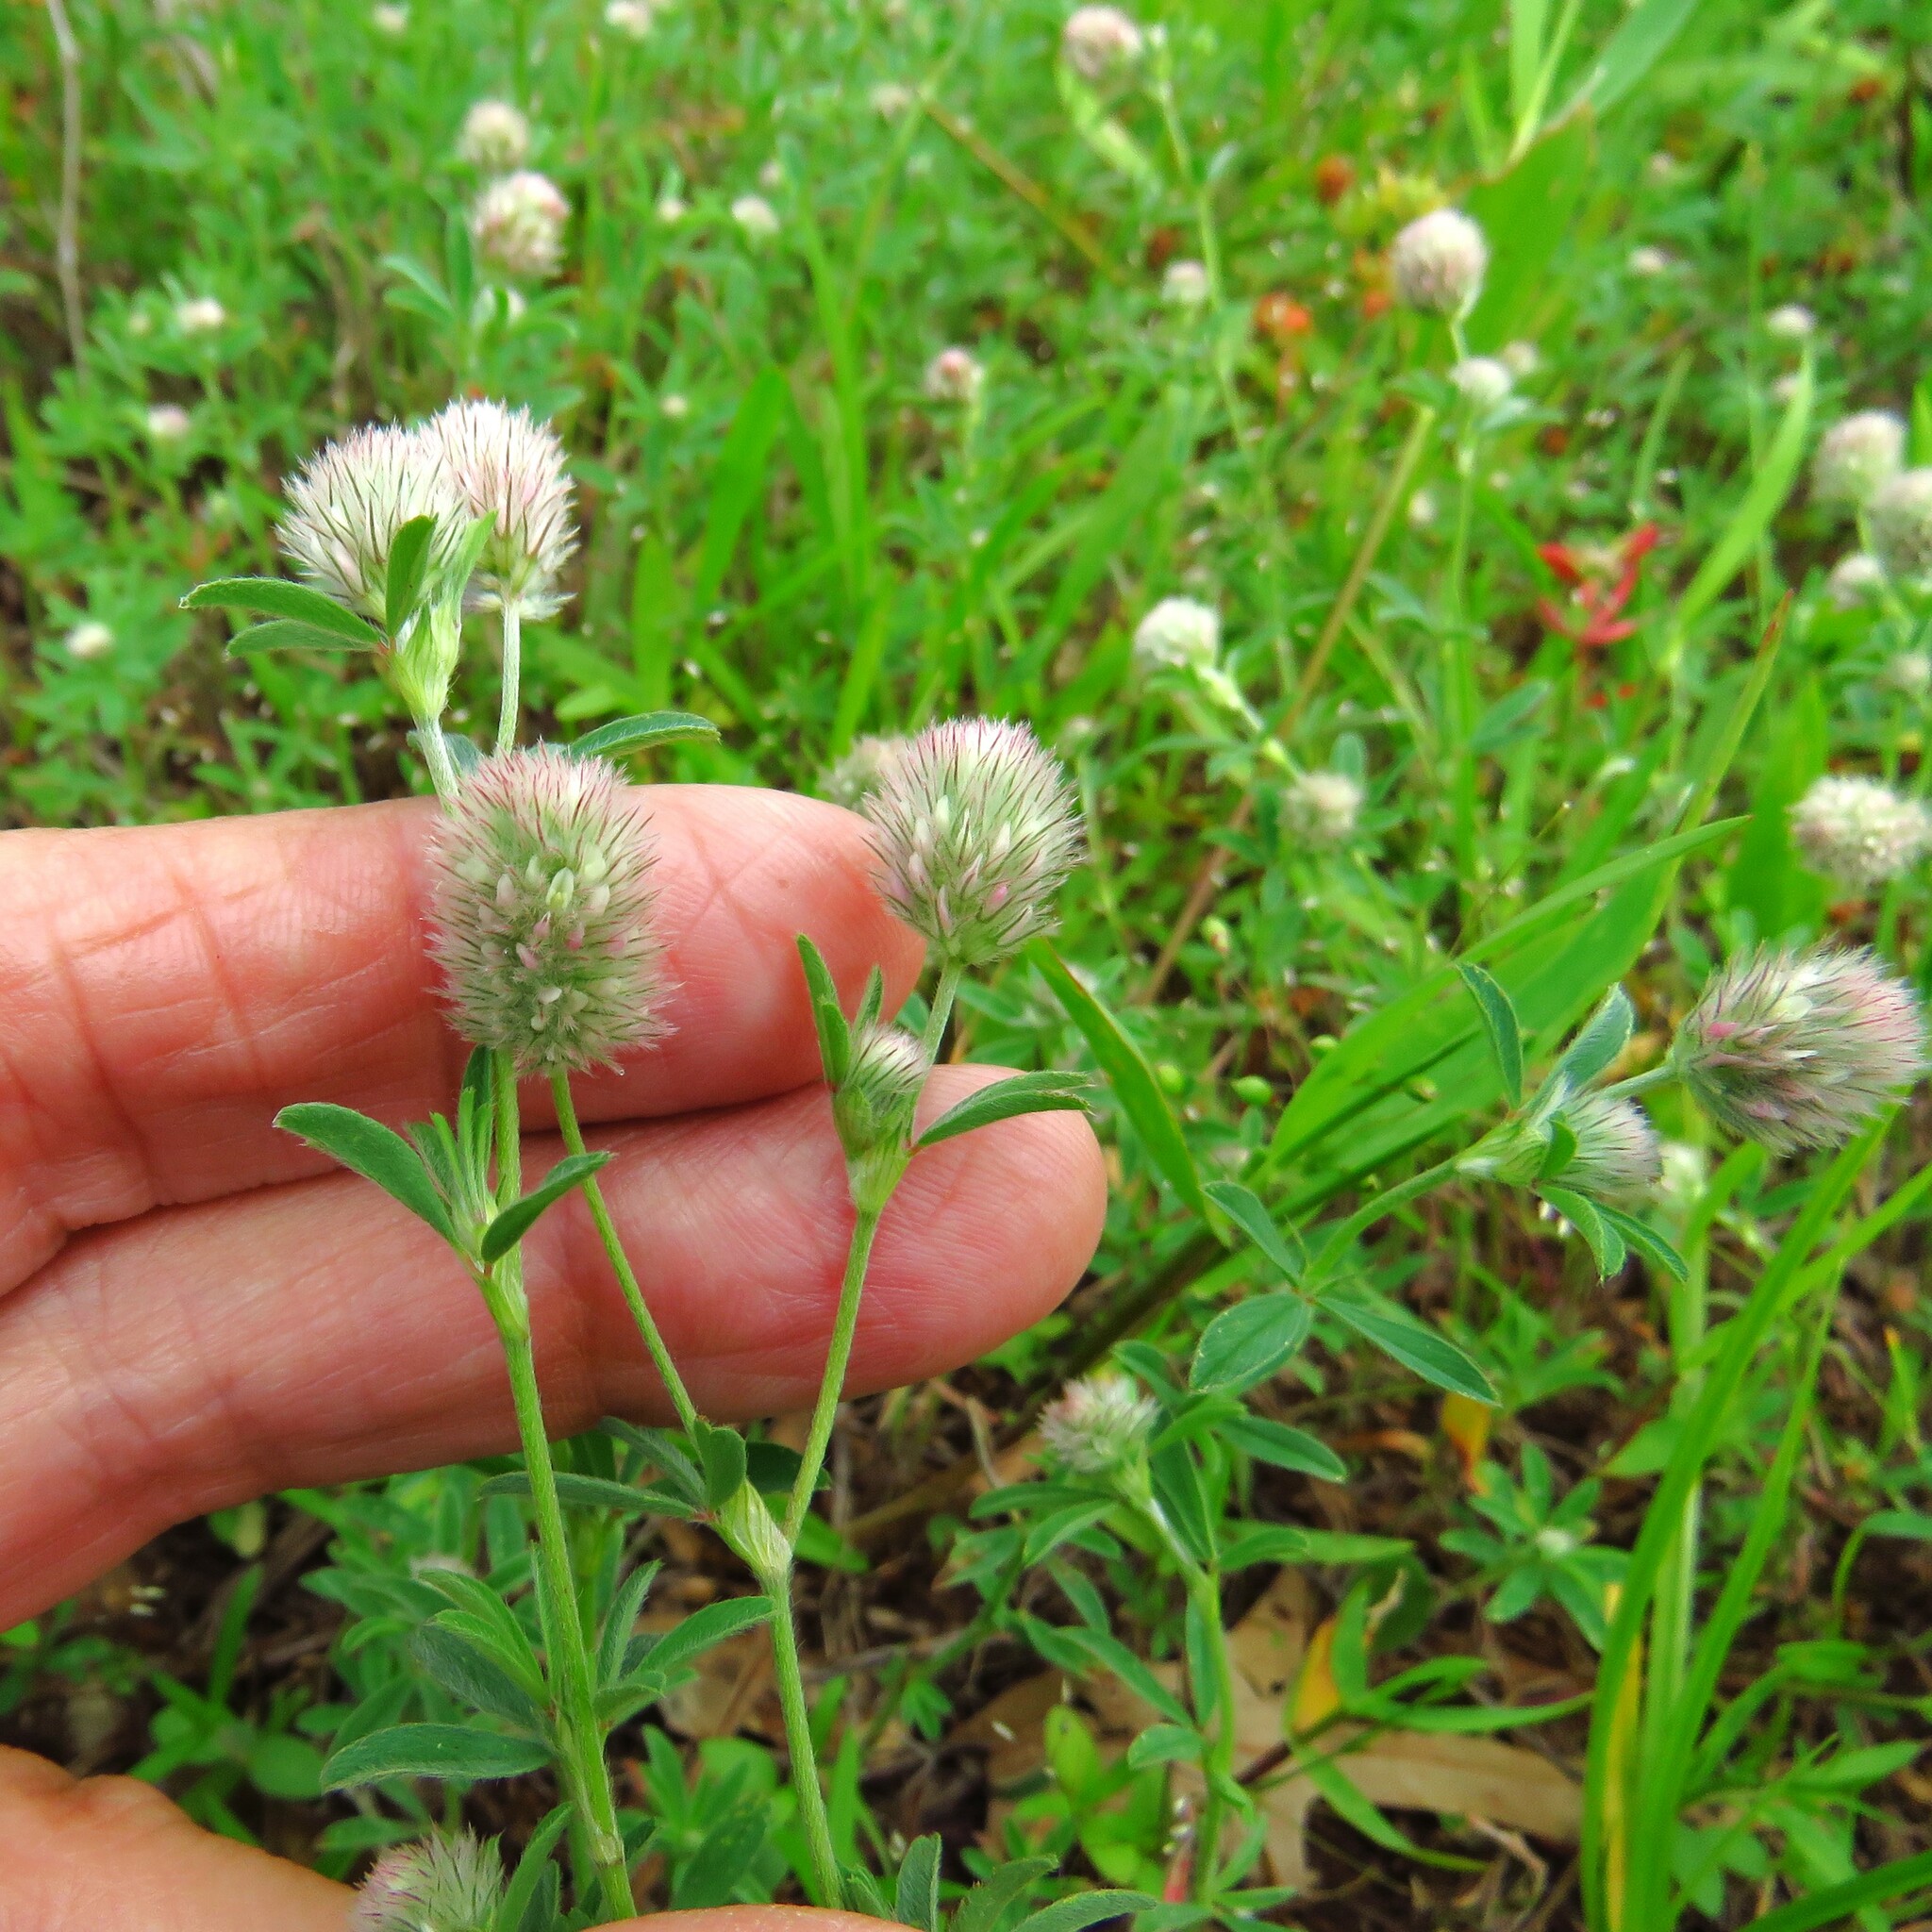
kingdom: Plantae
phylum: Tracheophyta
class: Magnoliopsida
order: Fabales
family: Fabaceae
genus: Trifolium
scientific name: Trifolium arvense
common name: Hare's-foot clover
